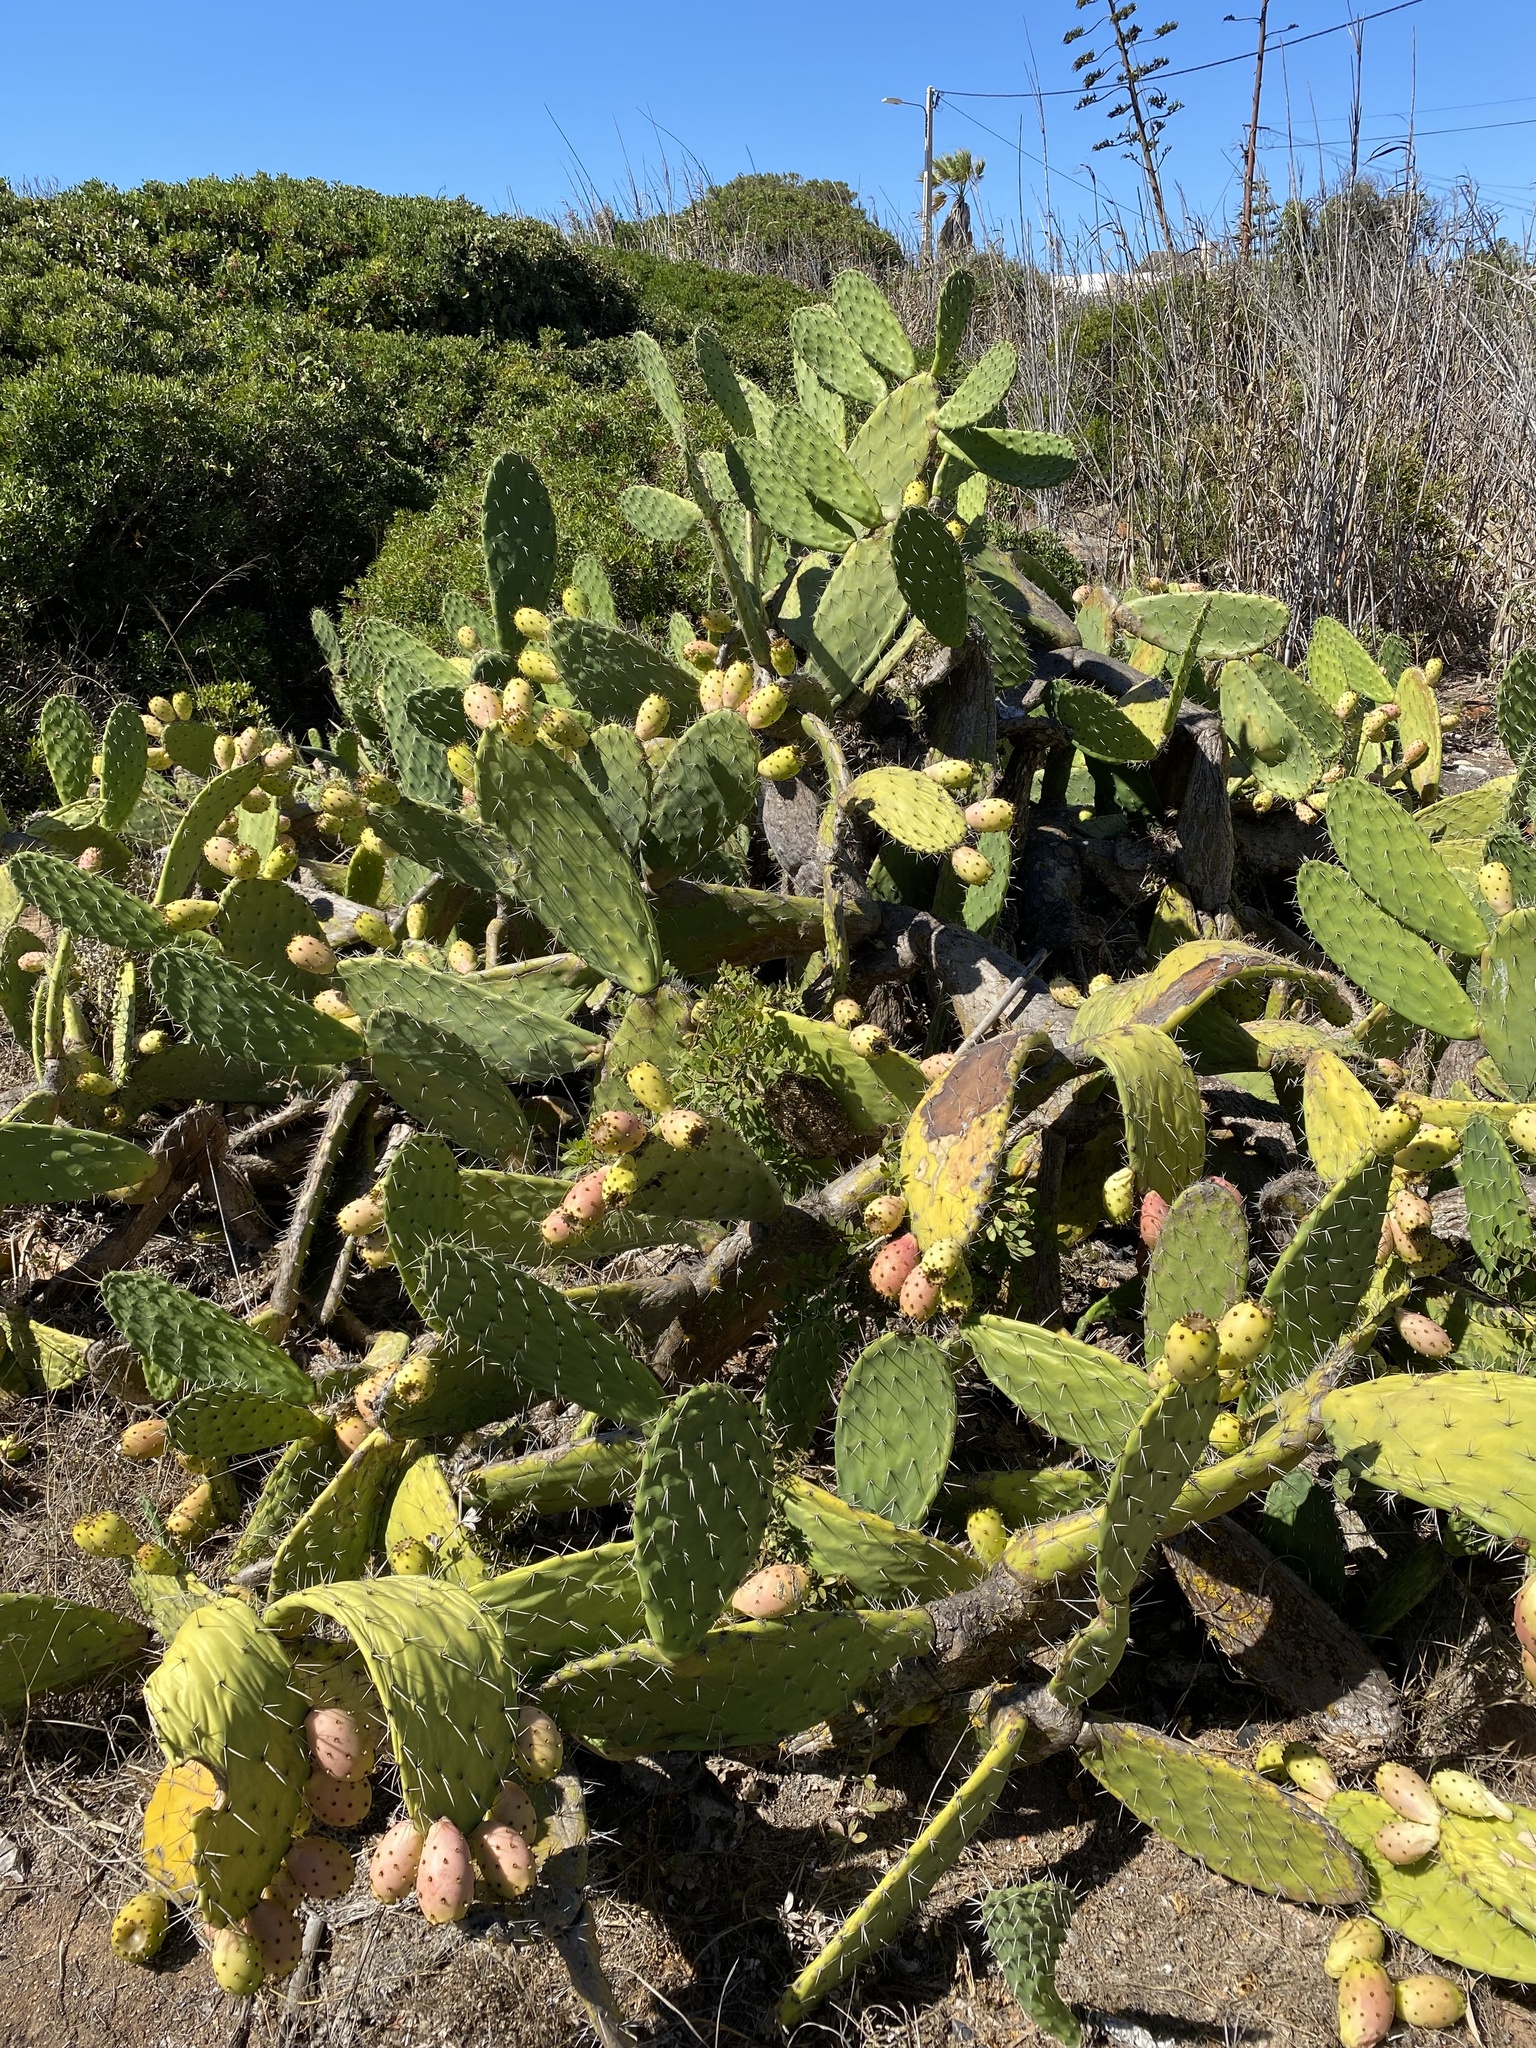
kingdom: Plantae
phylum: Tracheophyta
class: Magnoliopsida
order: Caryophyllales
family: Cactaceae
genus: Opuntia
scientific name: Opuntia ficus-indica
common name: Barbary fig
